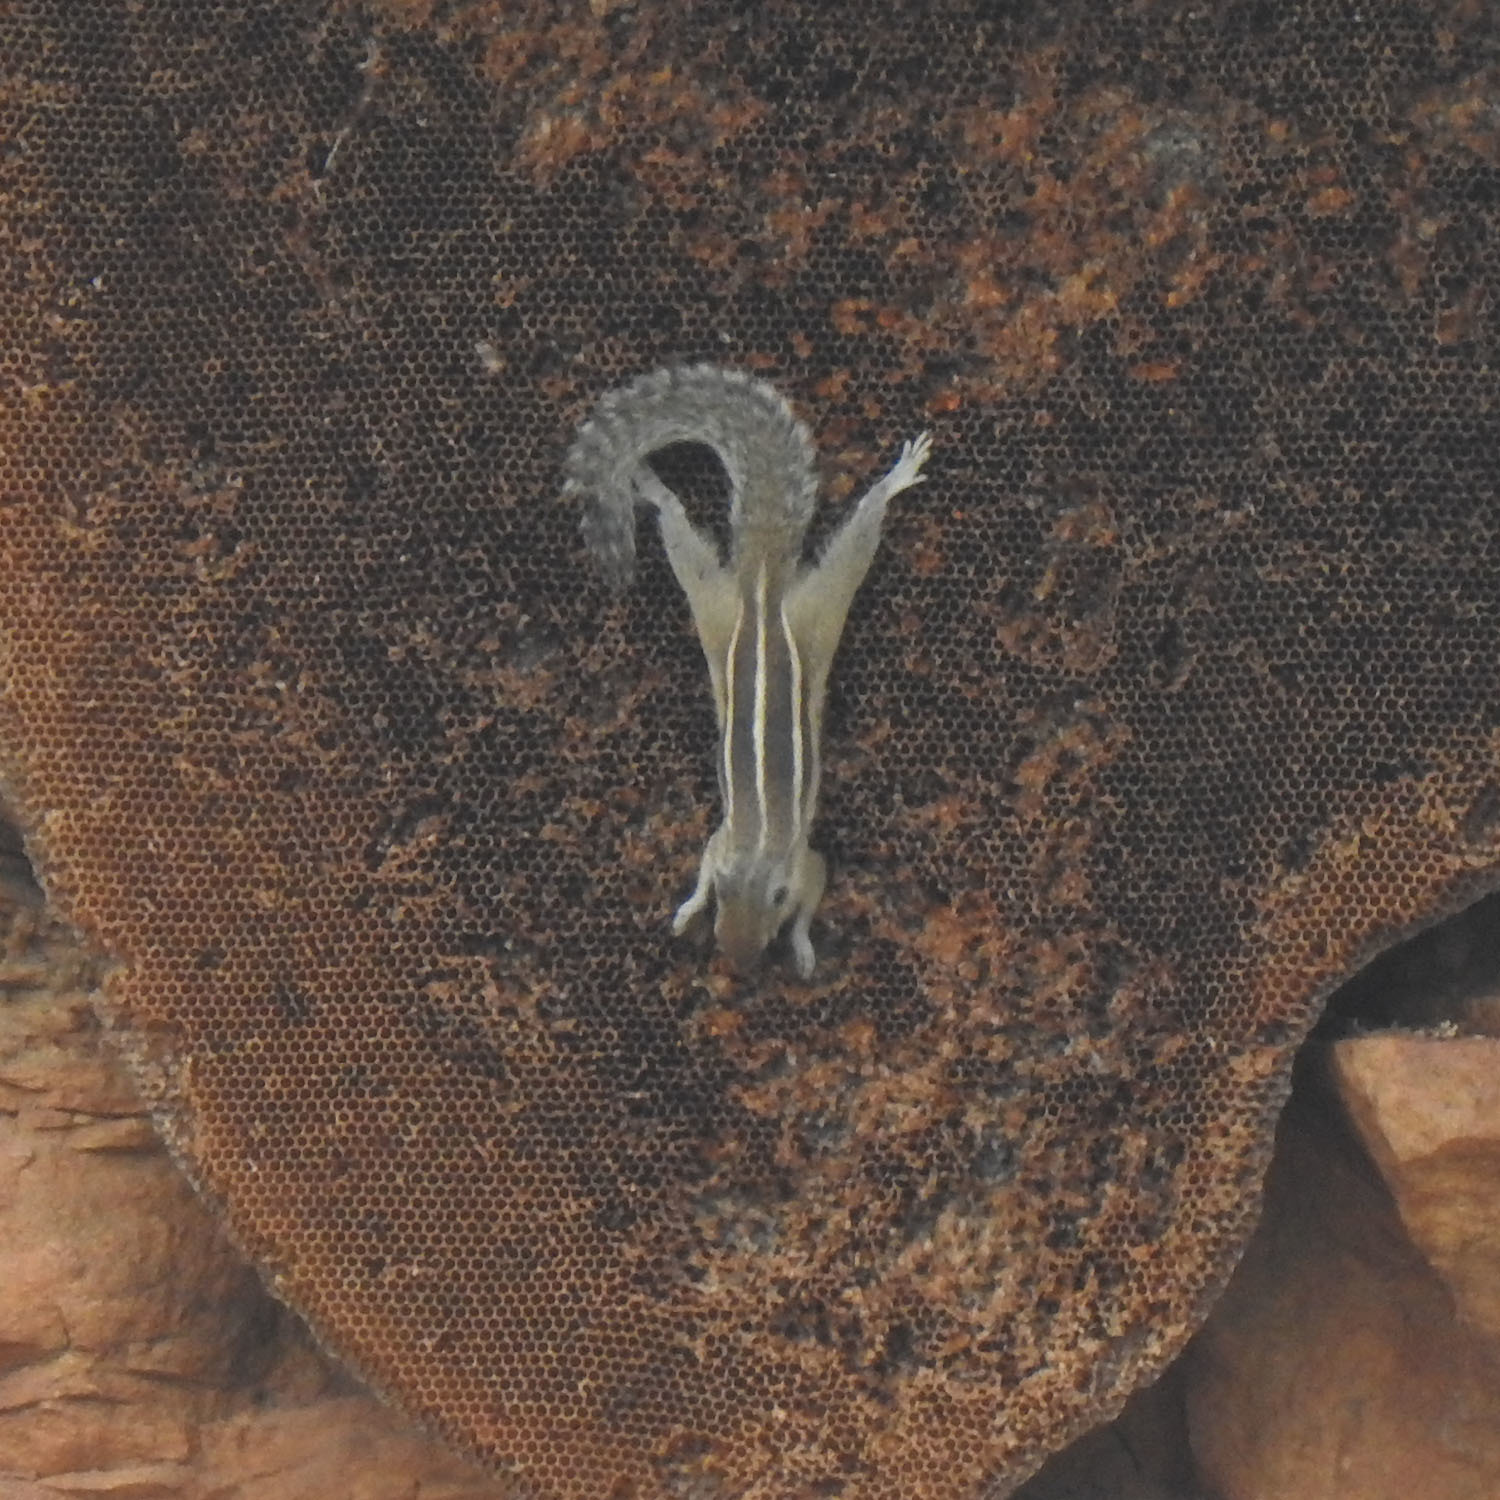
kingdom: Animalia
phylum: Chordata
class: Mammalia
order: Rodentia
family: Sciuridae
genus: Funambulus
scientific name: Funambulus palmarum
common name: Indian palm squirrel
